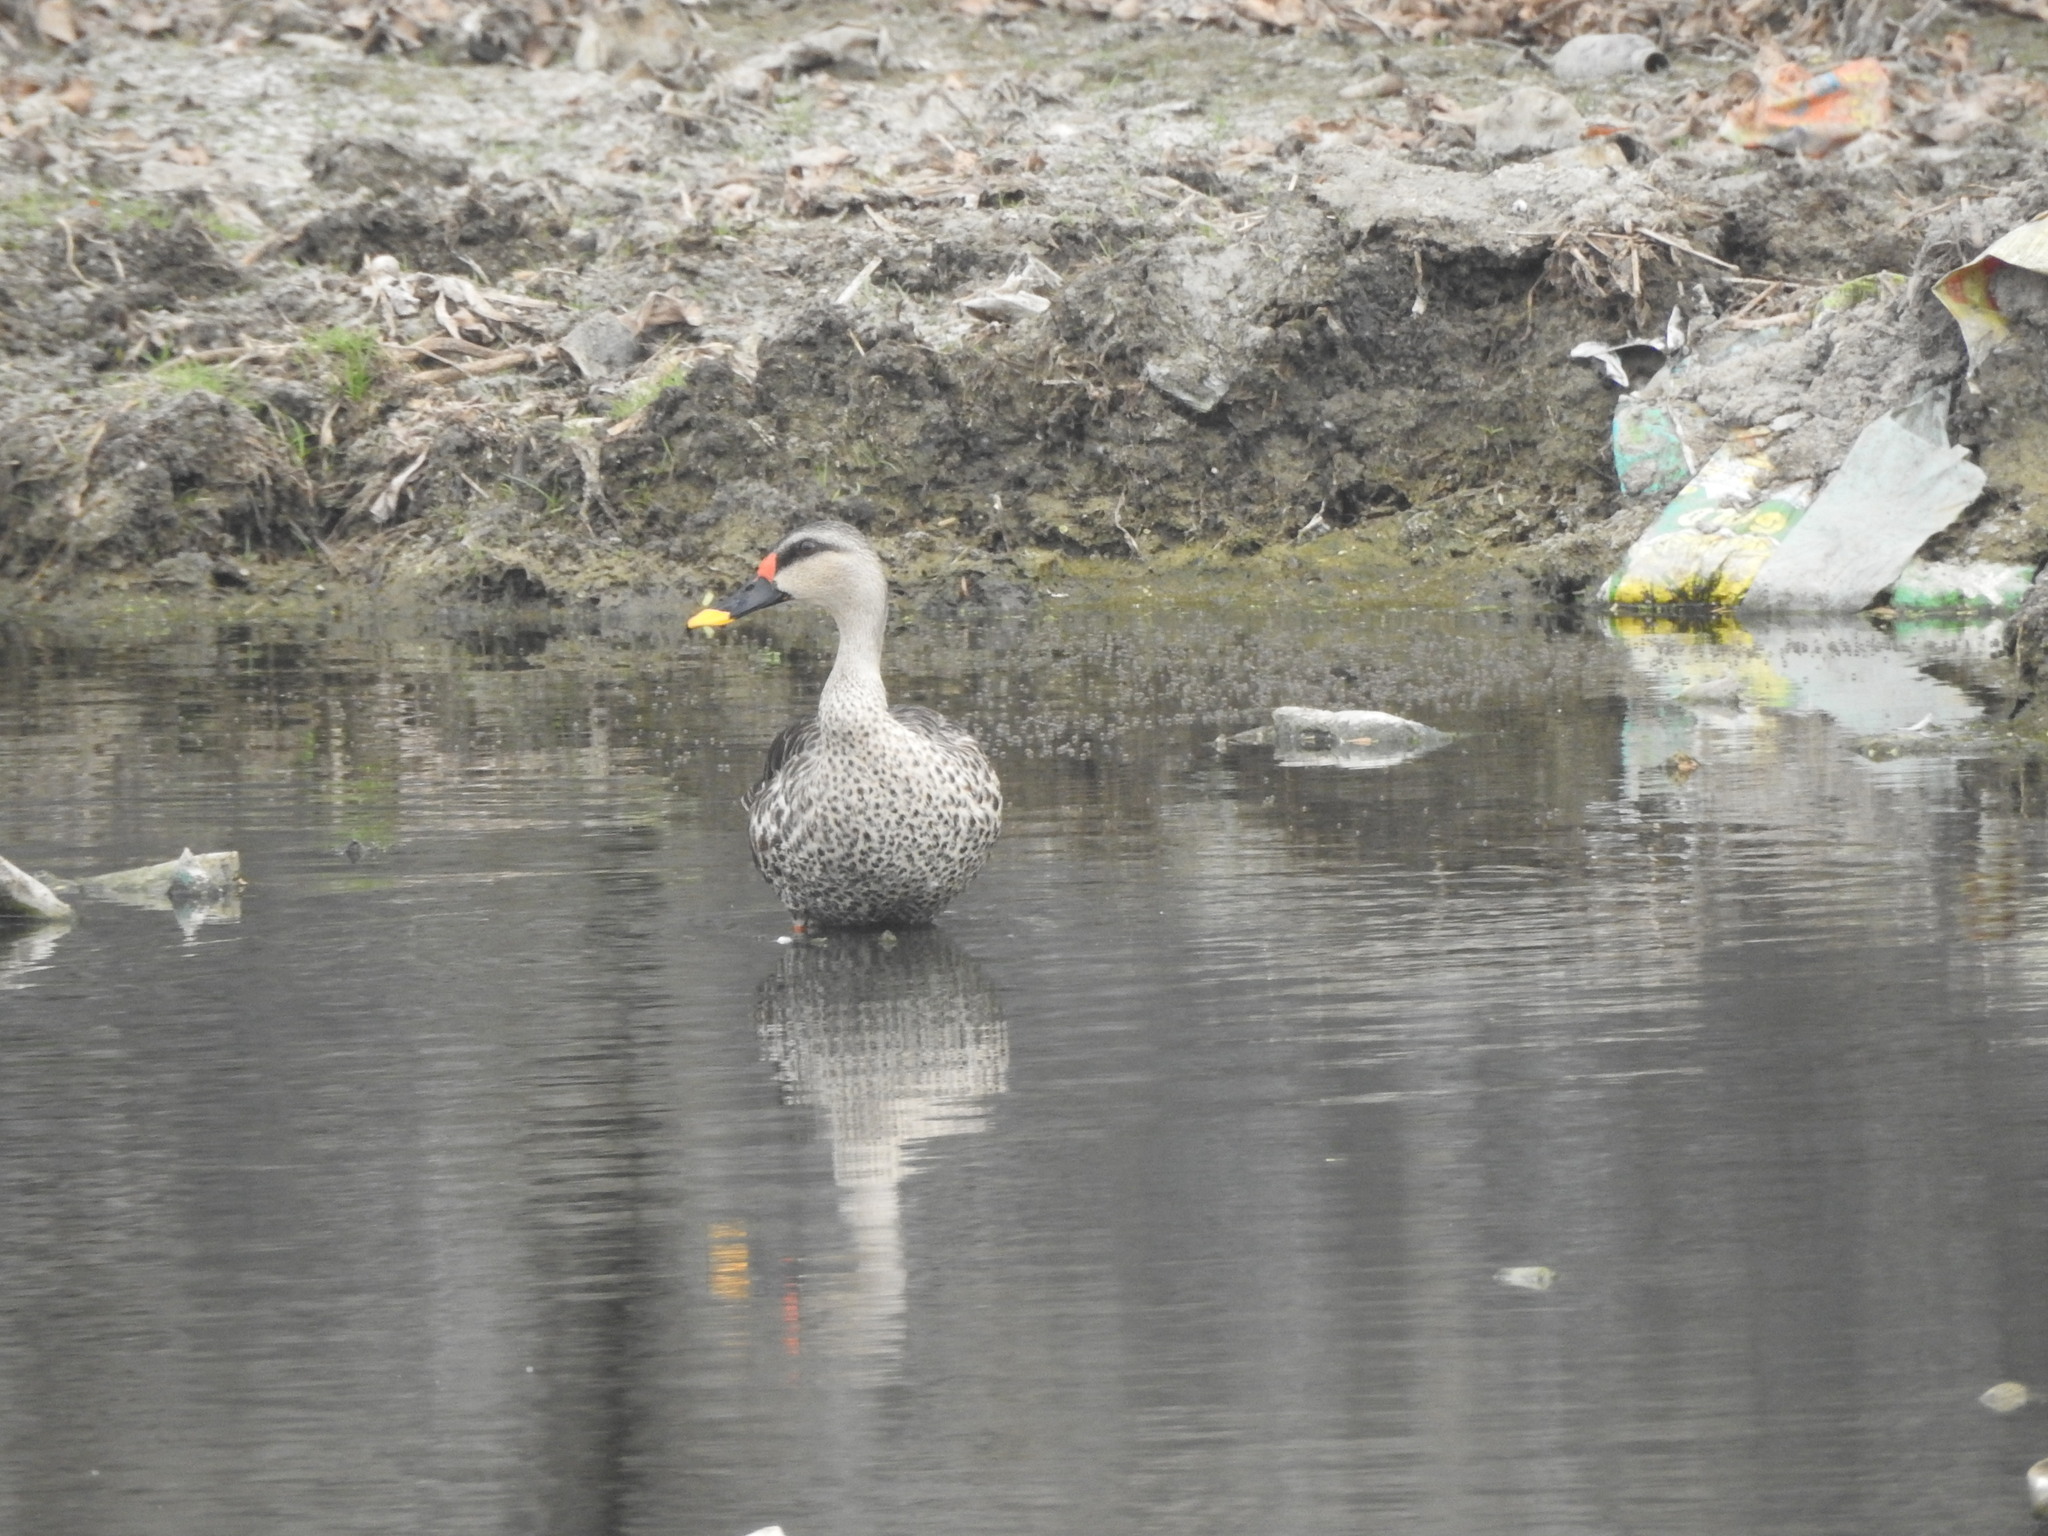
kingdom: Animalia
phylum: Chordata
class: Aves
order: Anseriformes
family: Anatidae
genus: Anas
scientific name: Anas poecilorhyncha
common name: Indian spot-billed duck
